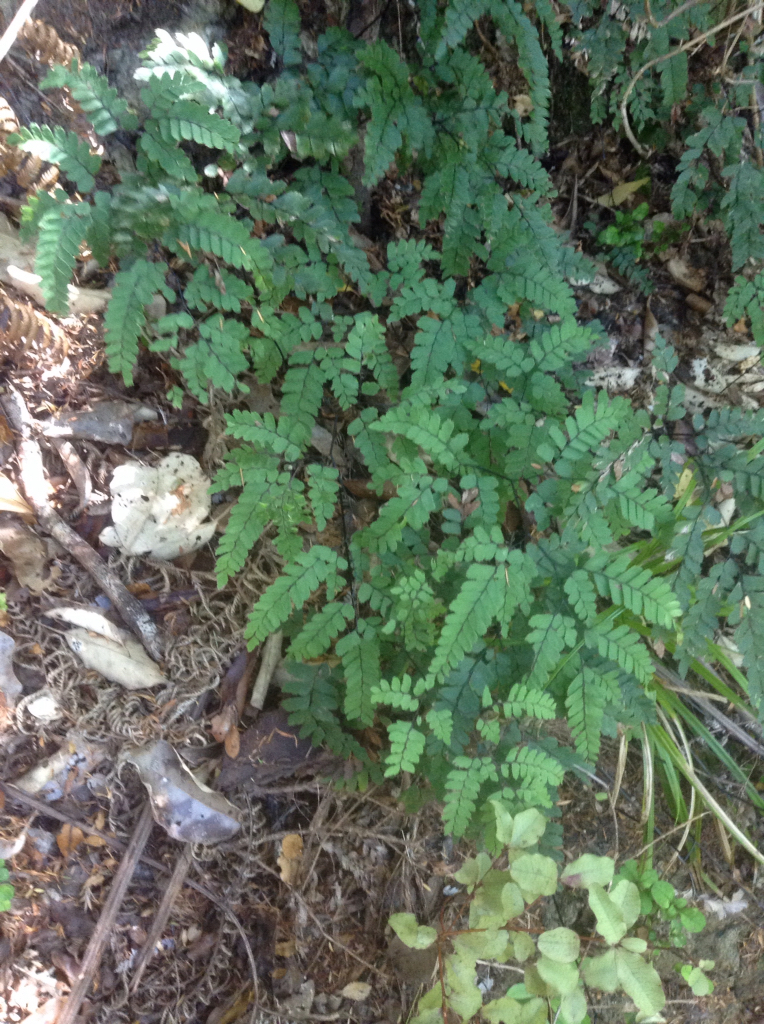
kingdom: Plantae
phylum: Tracheophyta
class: Polypodiopsida
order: Polypodiales
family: Pteridaceae
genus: Adiantum
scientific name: Adiantum cunninghamii
